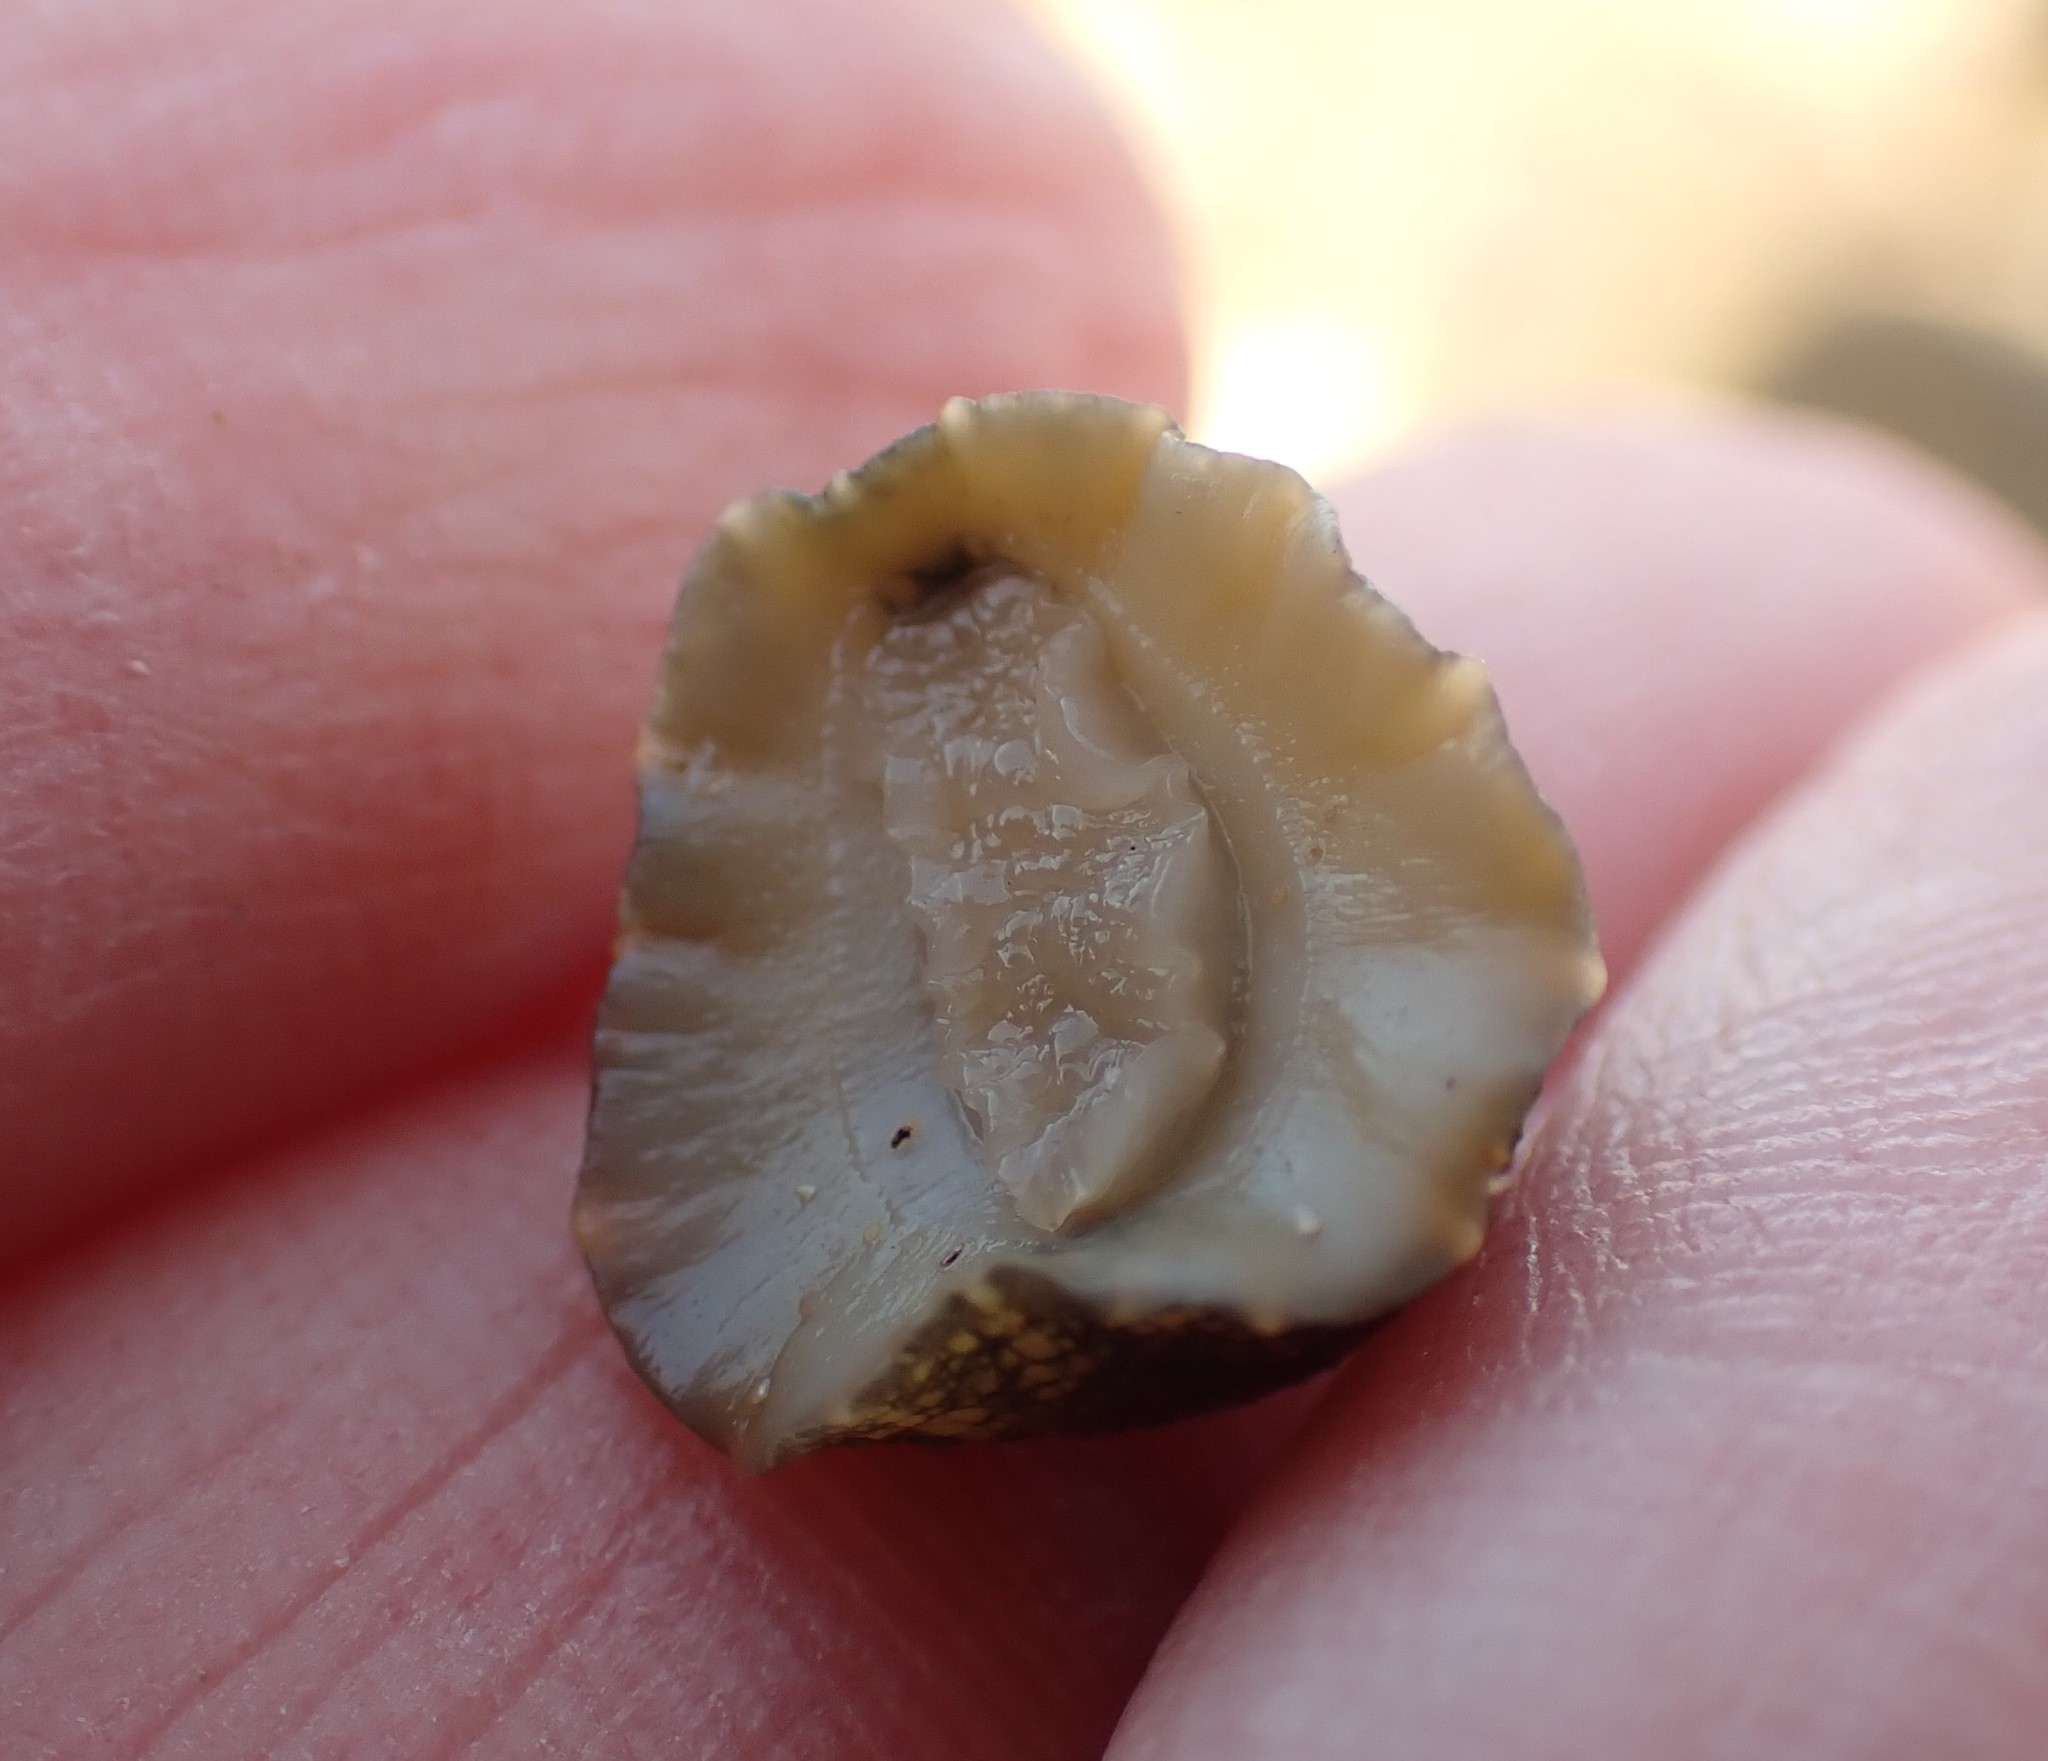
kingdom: Animalia
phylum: Mollusca
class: Gastropoda
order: Systellommatophora
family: Onchidiidae
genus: Onchidella
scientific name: Onchidella nigricans
